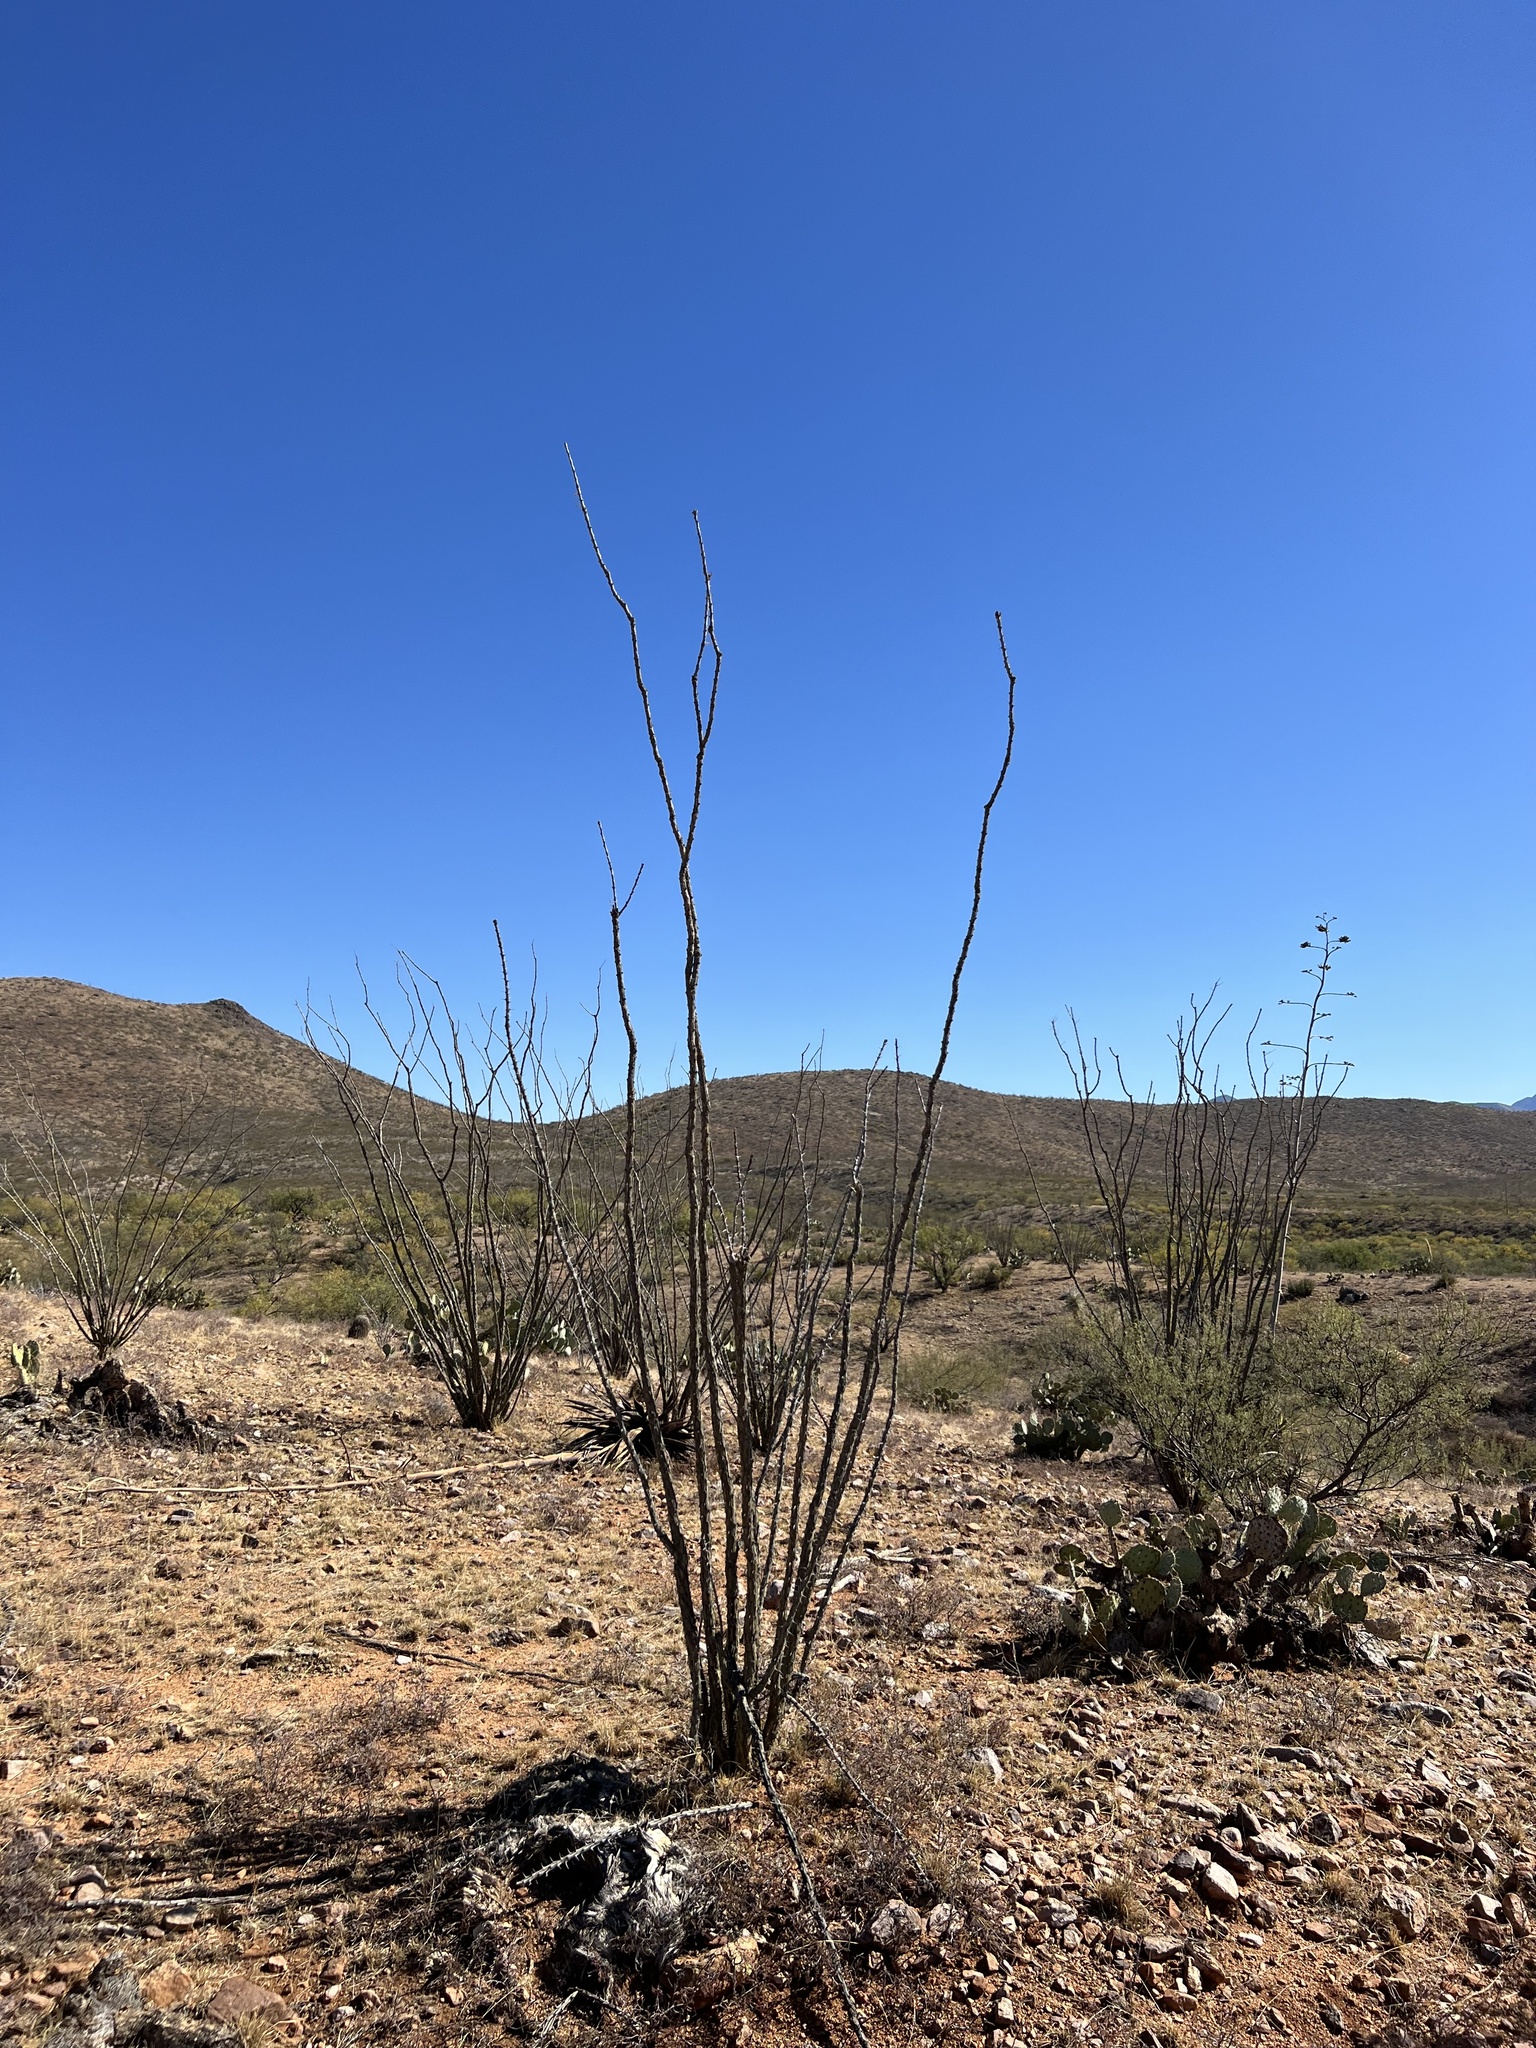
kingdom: Plantae
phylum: Tracheophyta
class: Magnoliopsida
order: Ericales
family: Fouquieriaceae
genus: Fouquieria
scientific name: Fouquieria splendens
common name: Vine-cactus
